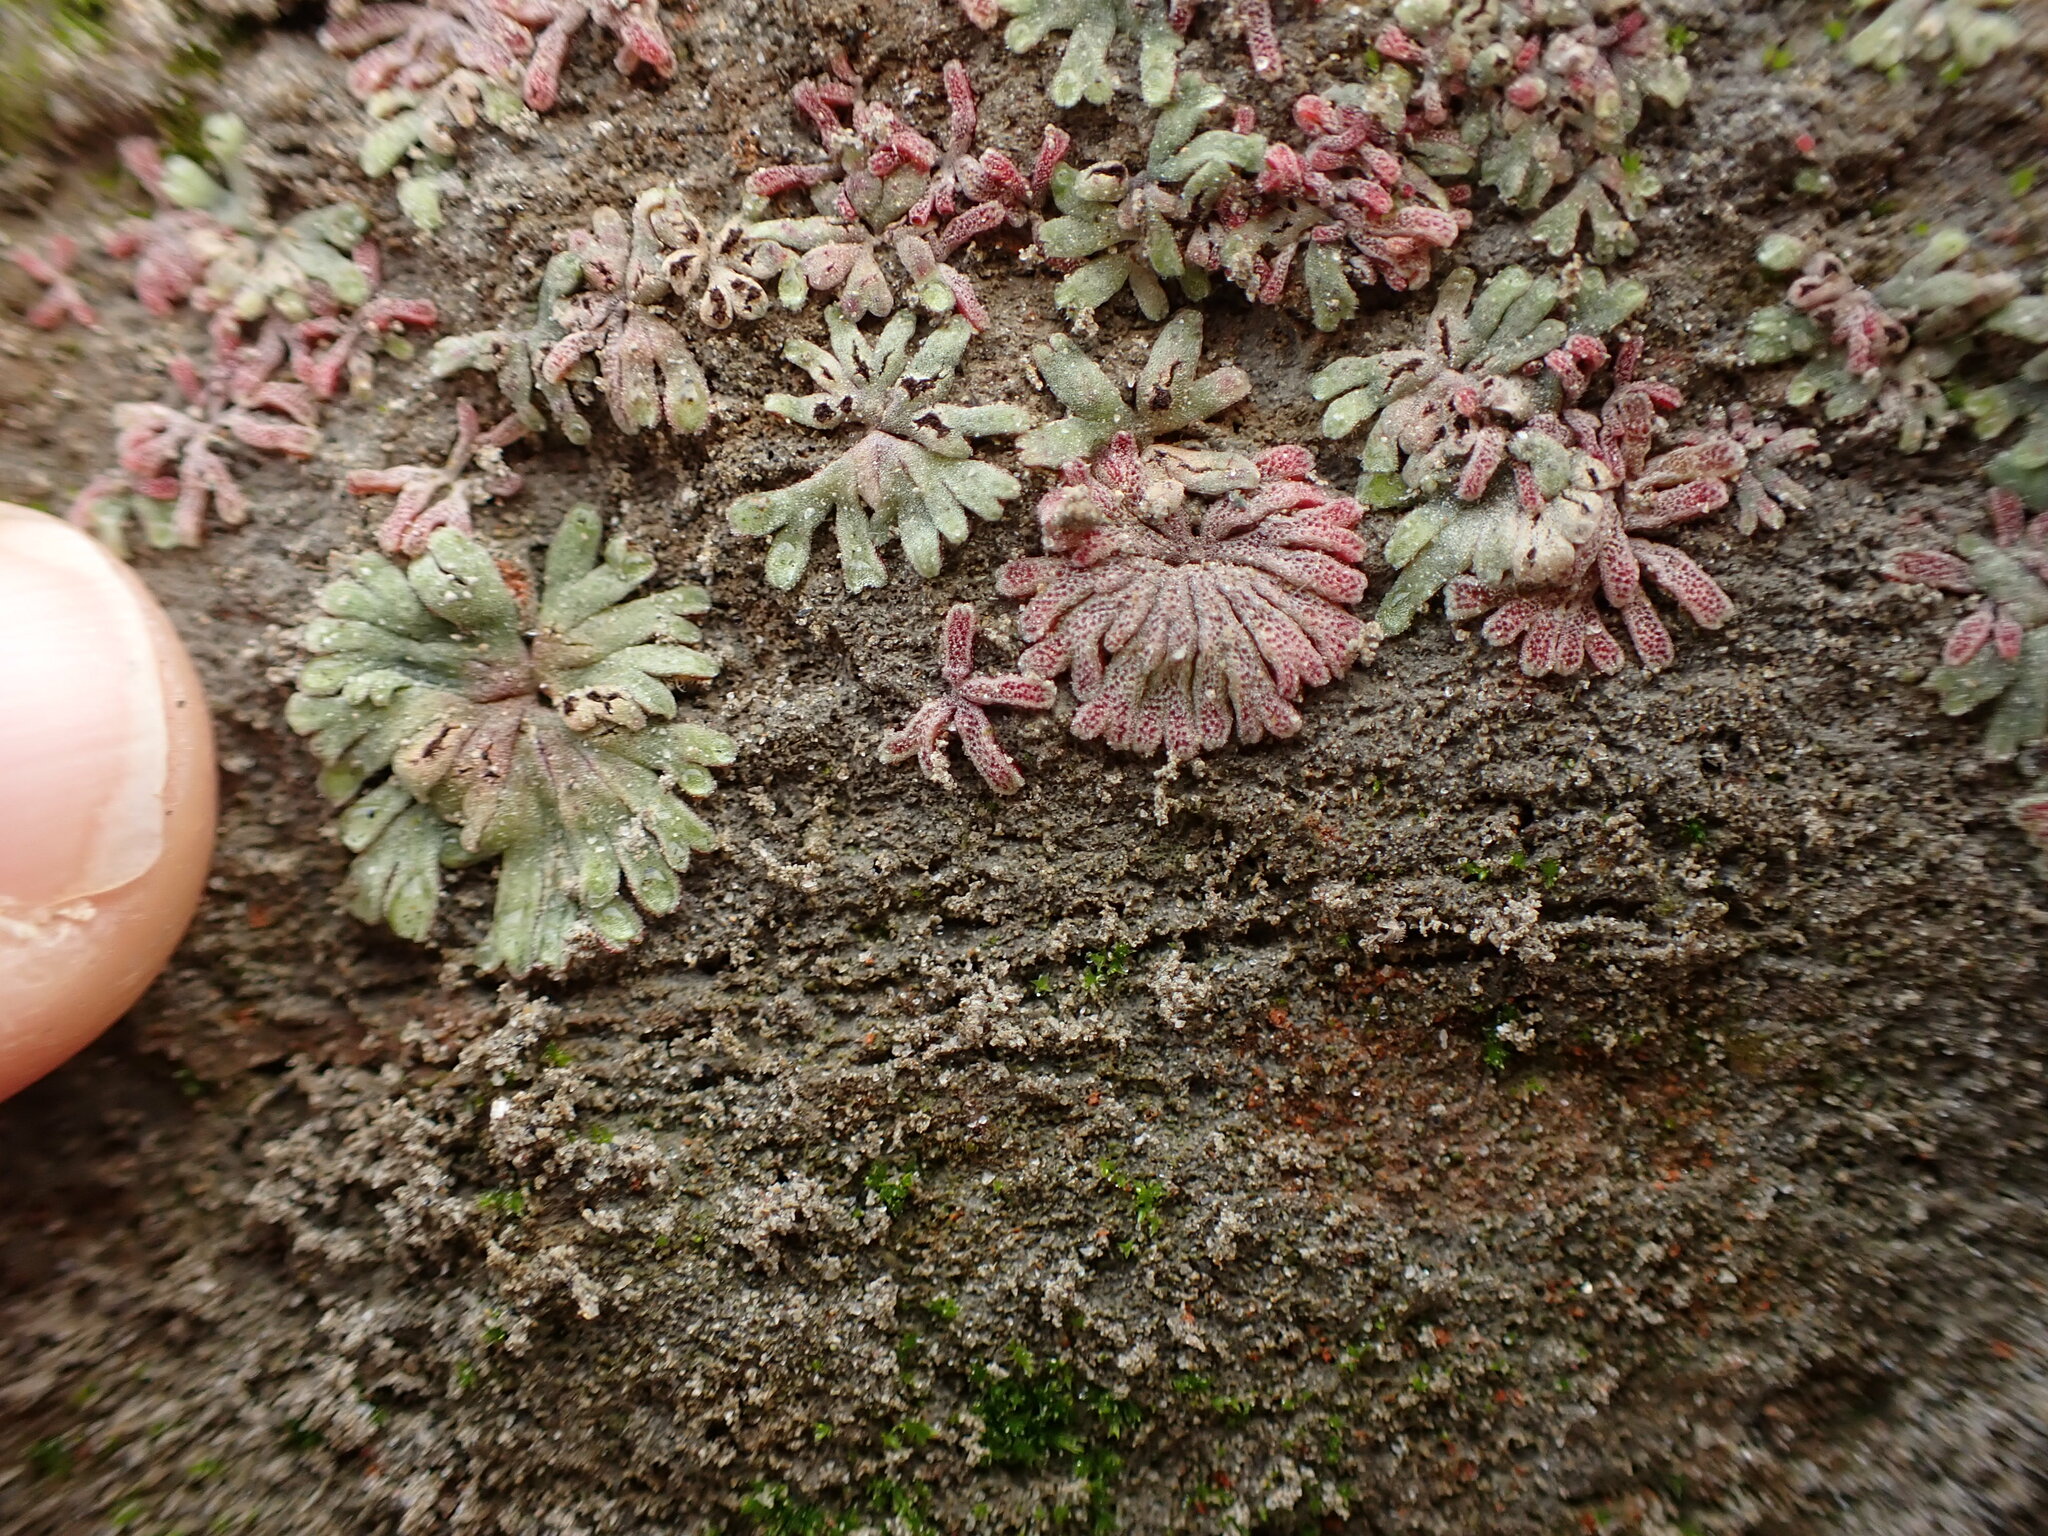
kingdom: Plantae
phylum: Marchantiophyta
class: Marchantiopsida
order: Marchantiales
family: Ricciaceae
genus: Riccia
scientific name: Riccia frostii
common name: Frost s crystalwort
